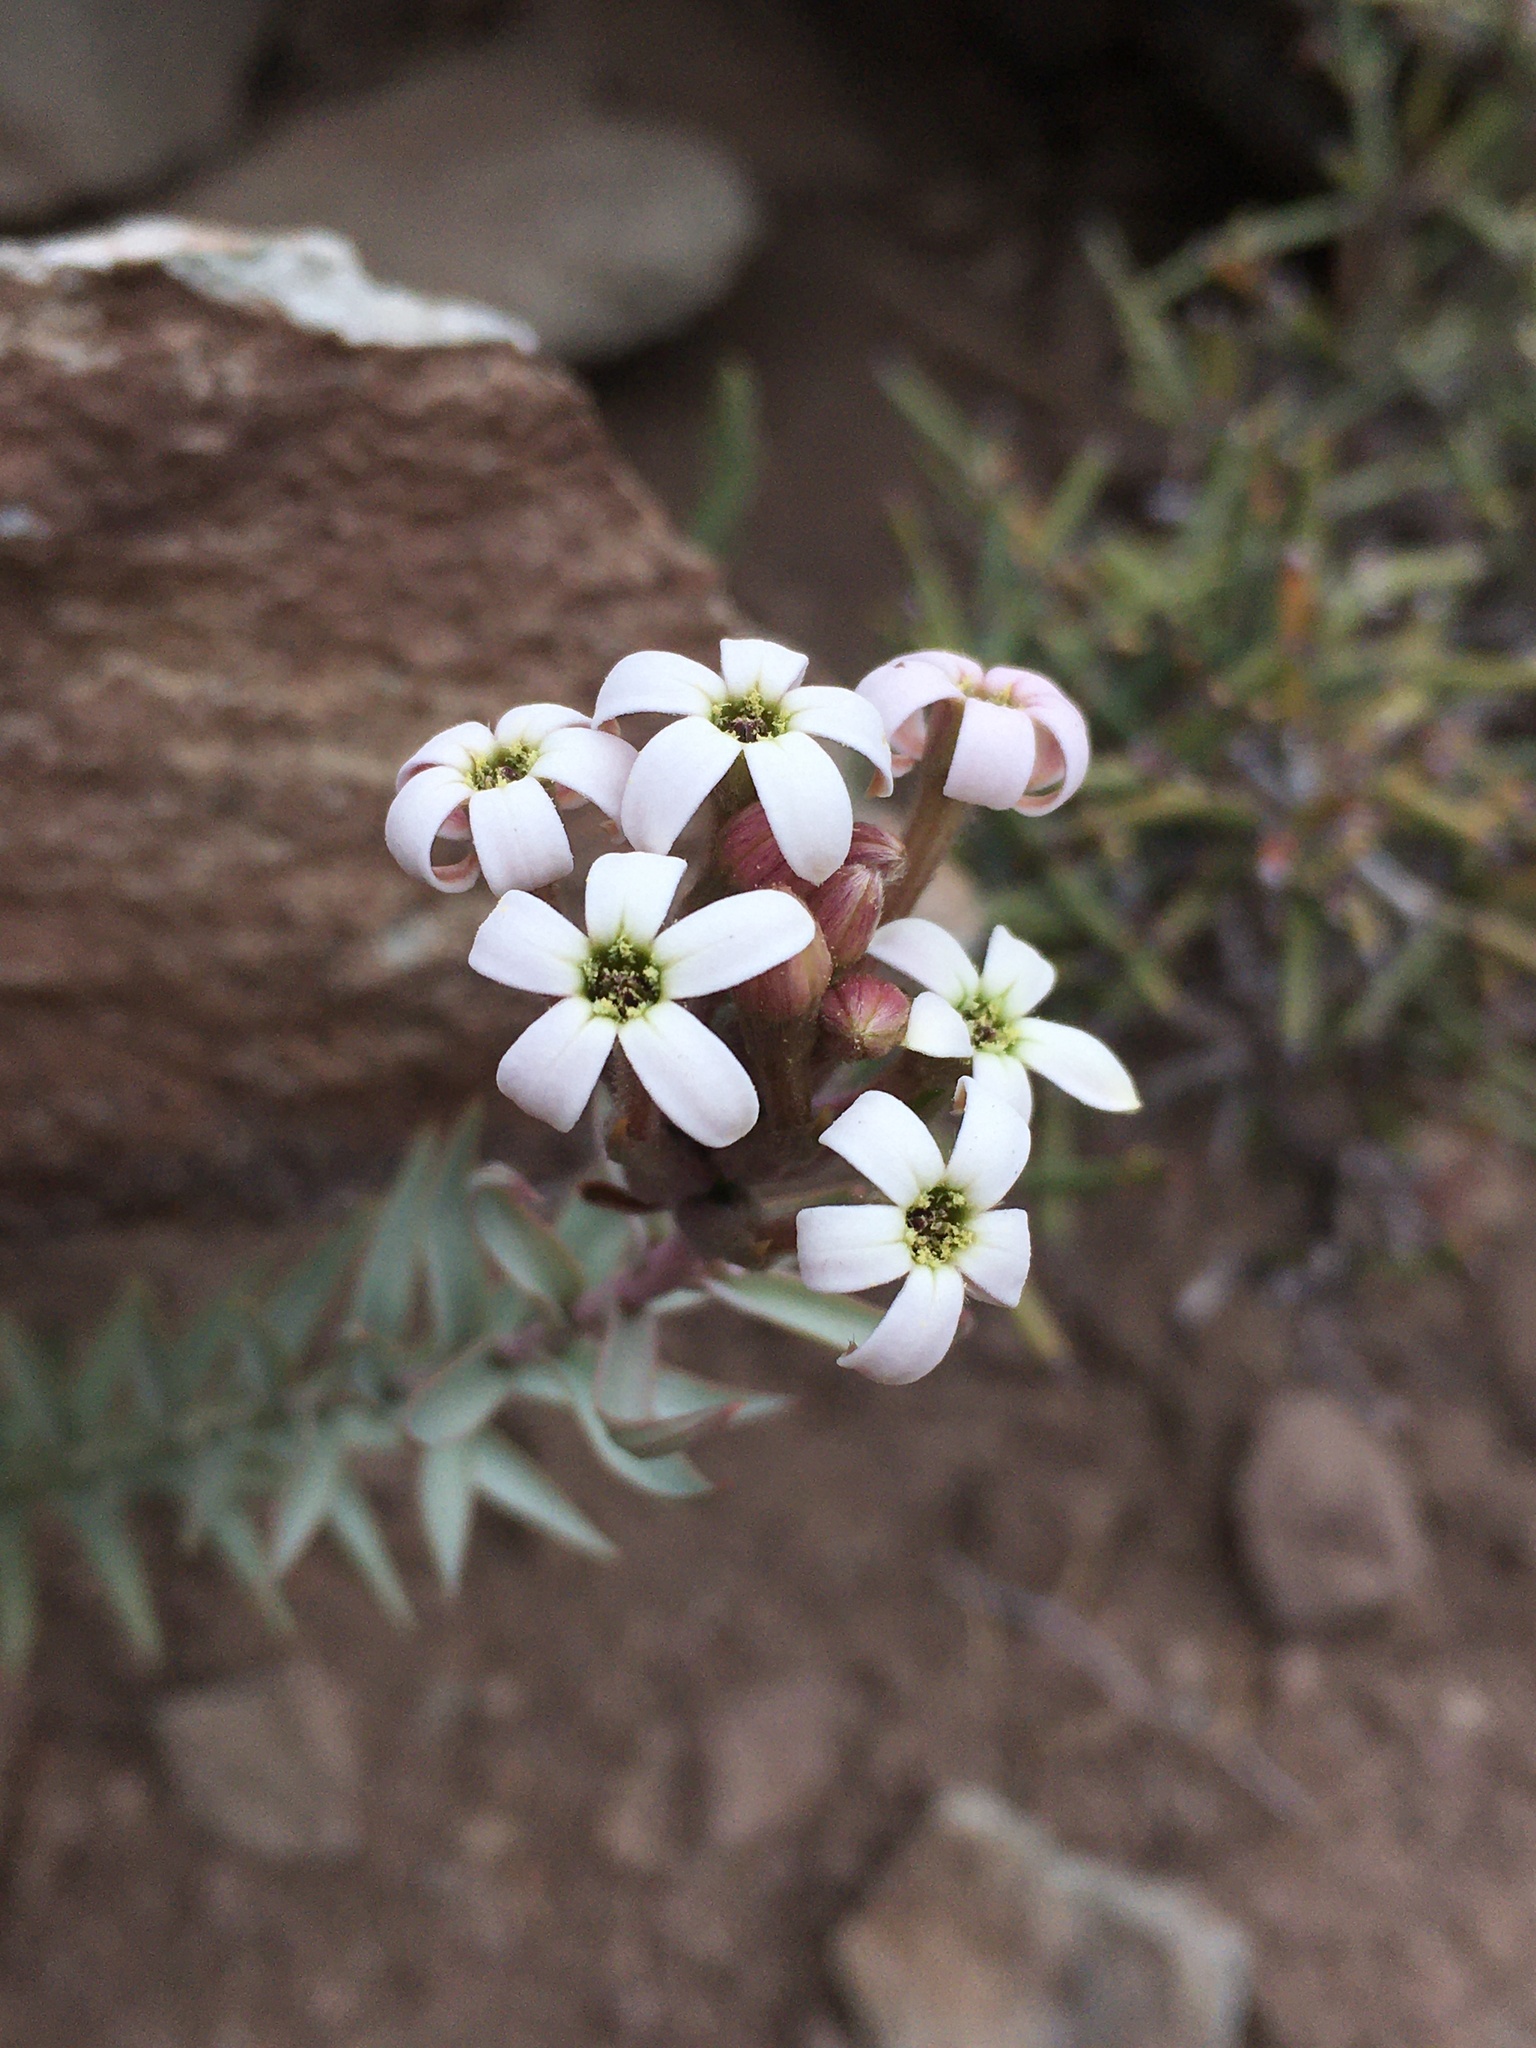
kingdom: Plantae
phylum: Tracheophyta
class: Magnoliopsida
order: Santalales
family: Schoepfiaceae
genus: Arjona
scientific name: Arjona patagonica
